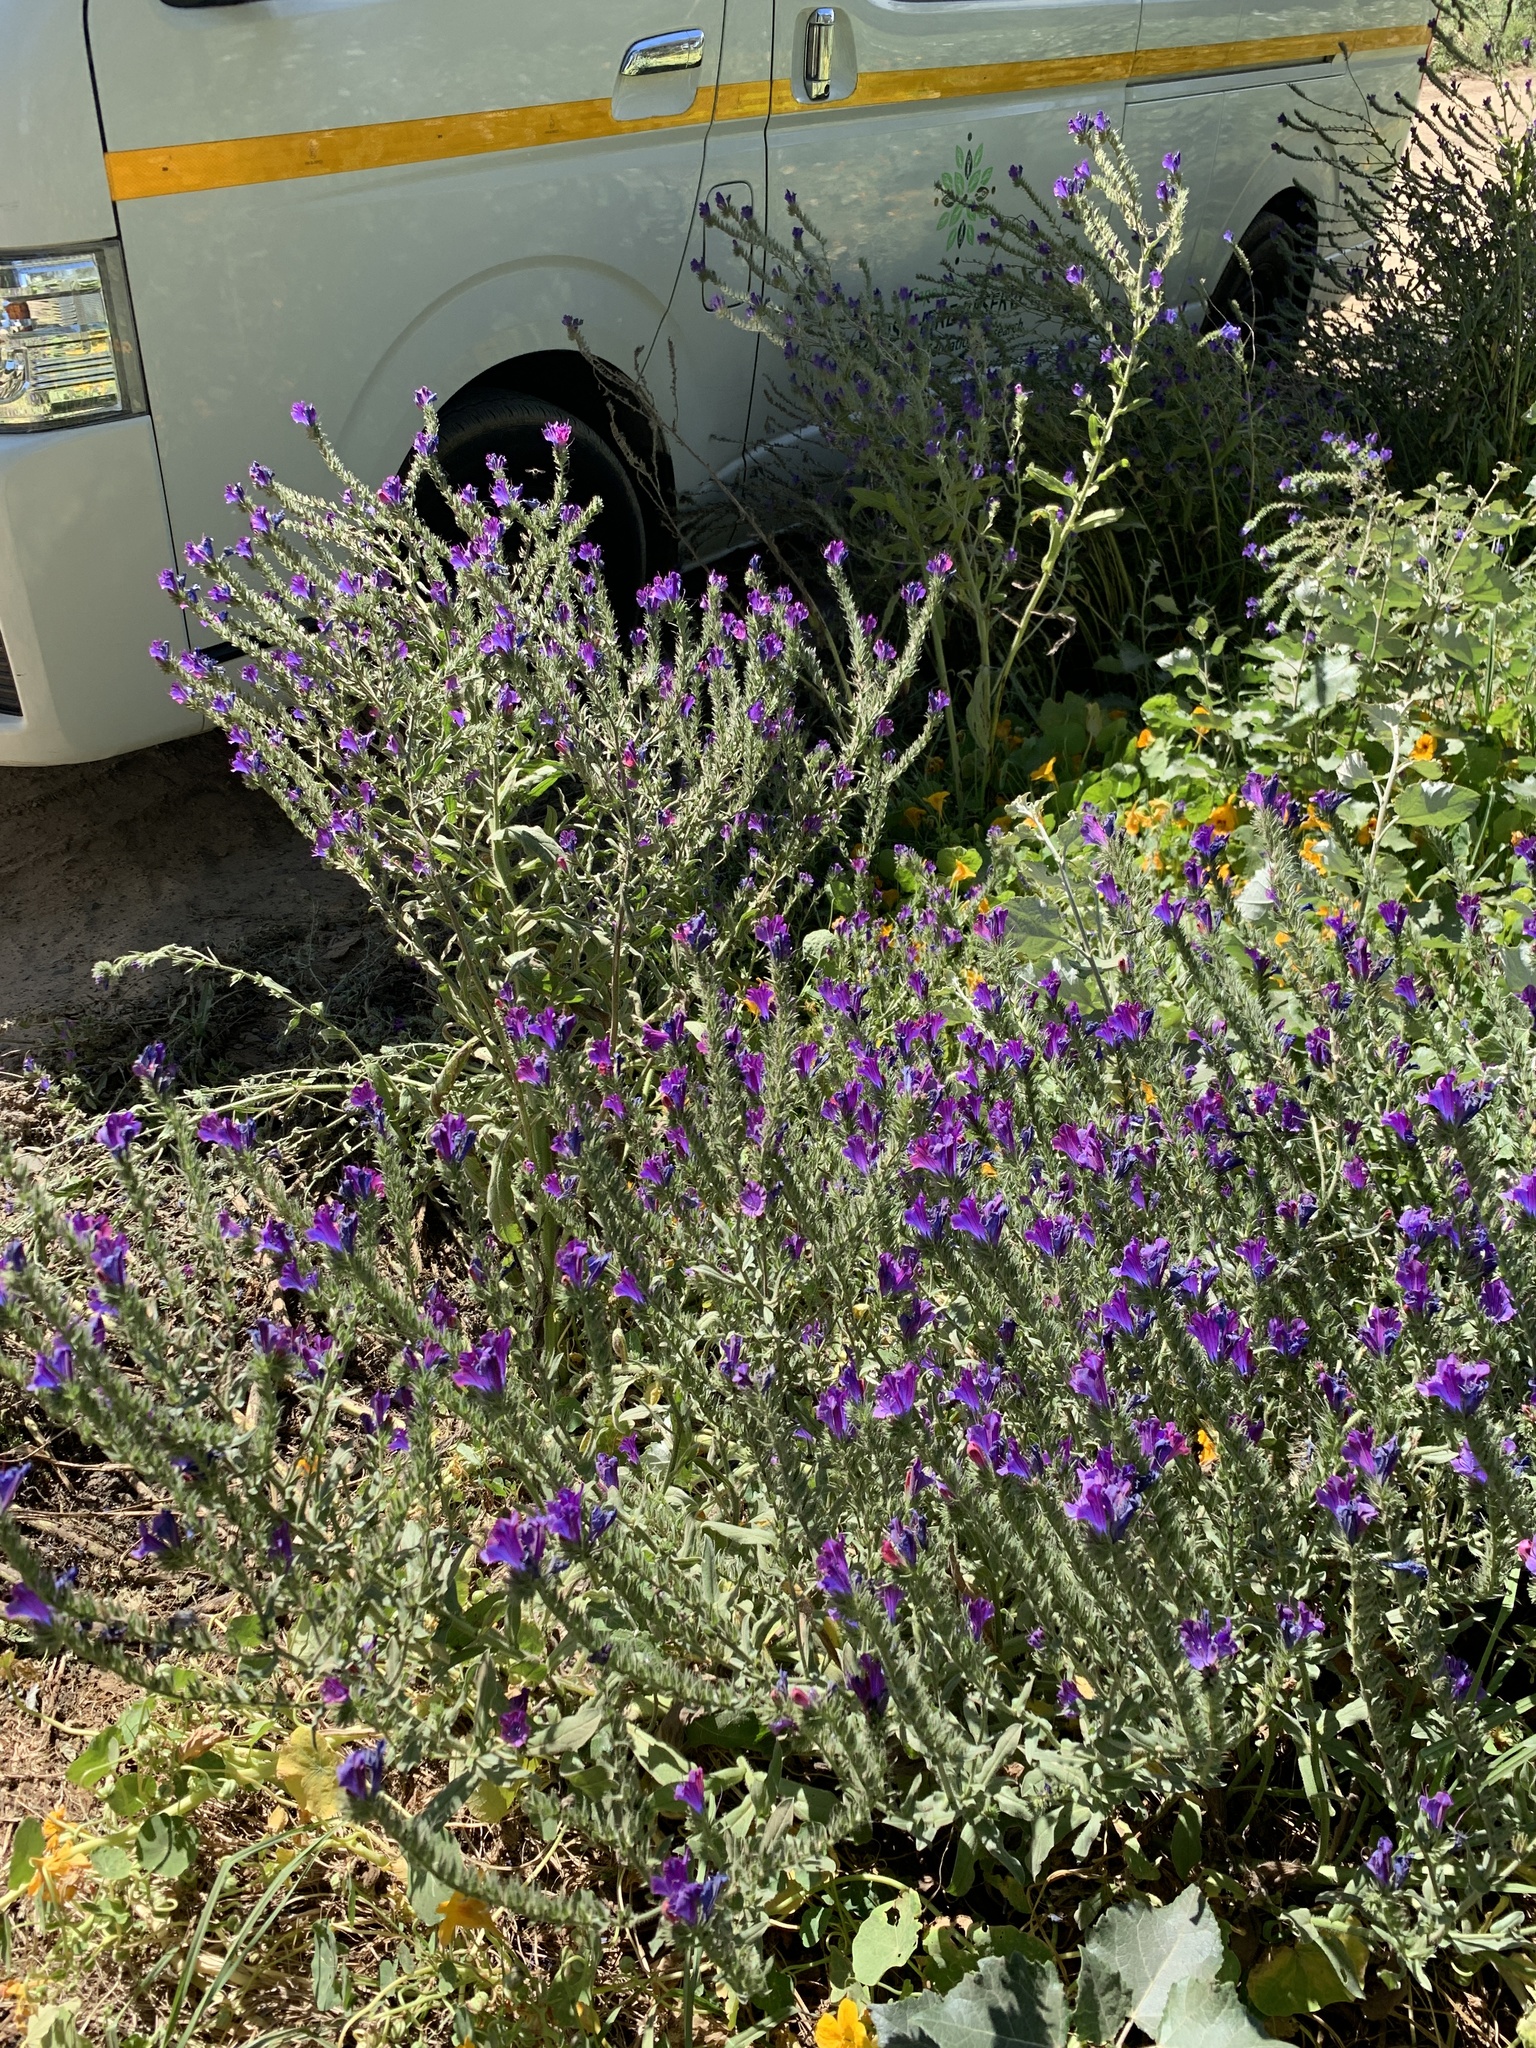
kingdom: Plantae
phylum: Tracheophyta
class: Magnoliopsida
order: Boraginales
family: Boraginaceae
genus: Echium
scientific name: Echium plantagineum
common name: Purple viper's-bugloss
